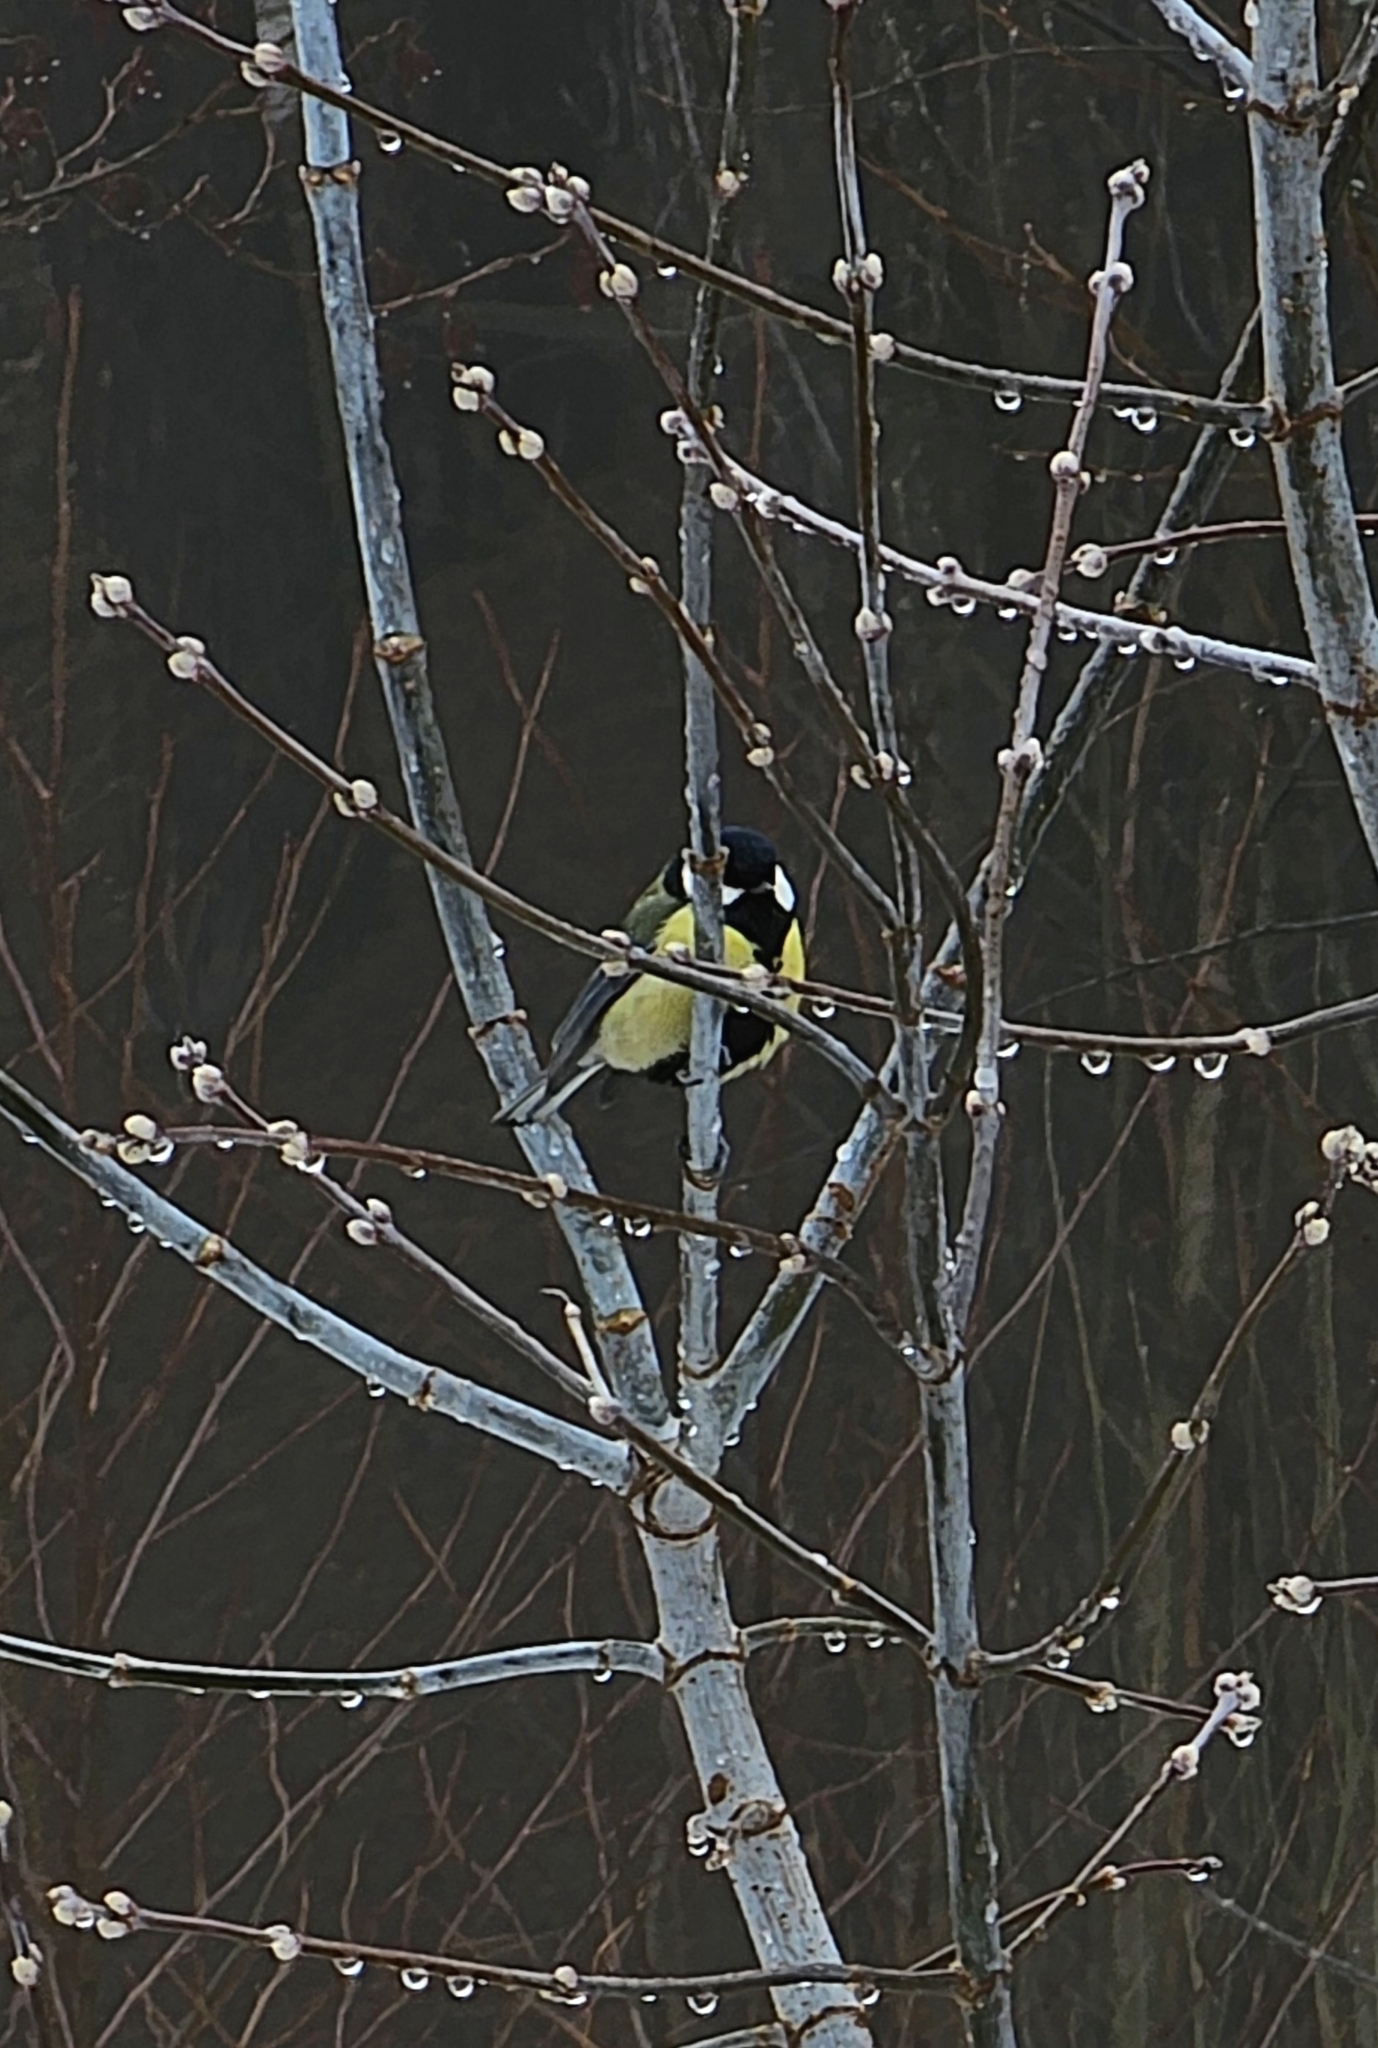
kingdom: Animalia
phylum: Chordata
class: Aves
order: Passeriformes
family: Paridae
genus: Parus
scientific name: Parus major
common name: Great tit
